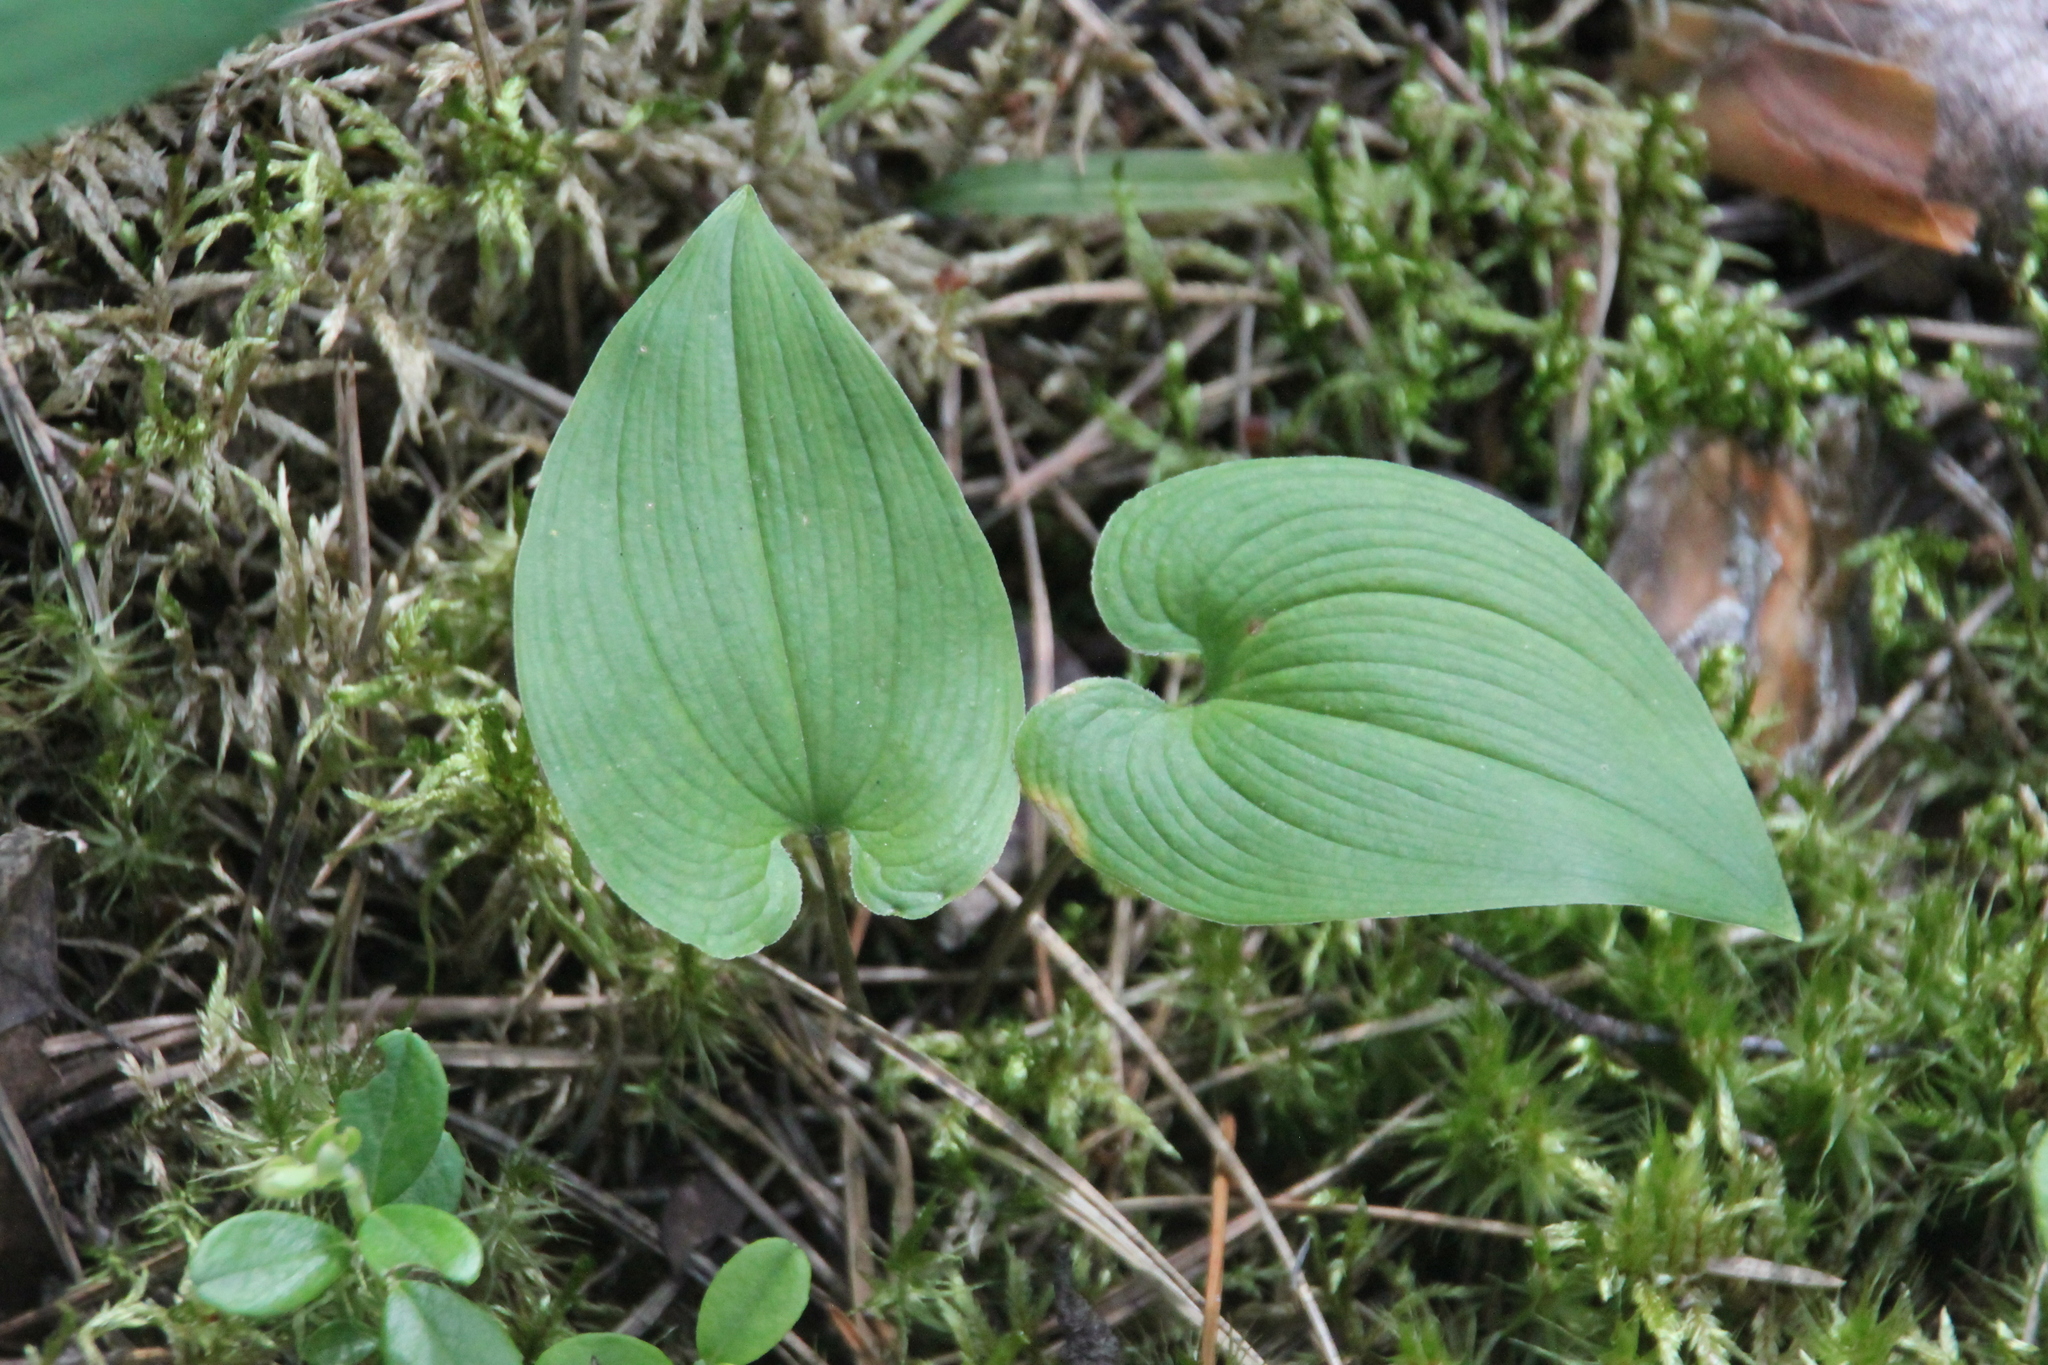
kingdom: Plantae
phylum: Tracheophyta
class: Liliopsida
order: Asparagales
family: Asparagaceae
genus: Maianthemum
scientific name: Maianthemum bifolium
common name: May lily
